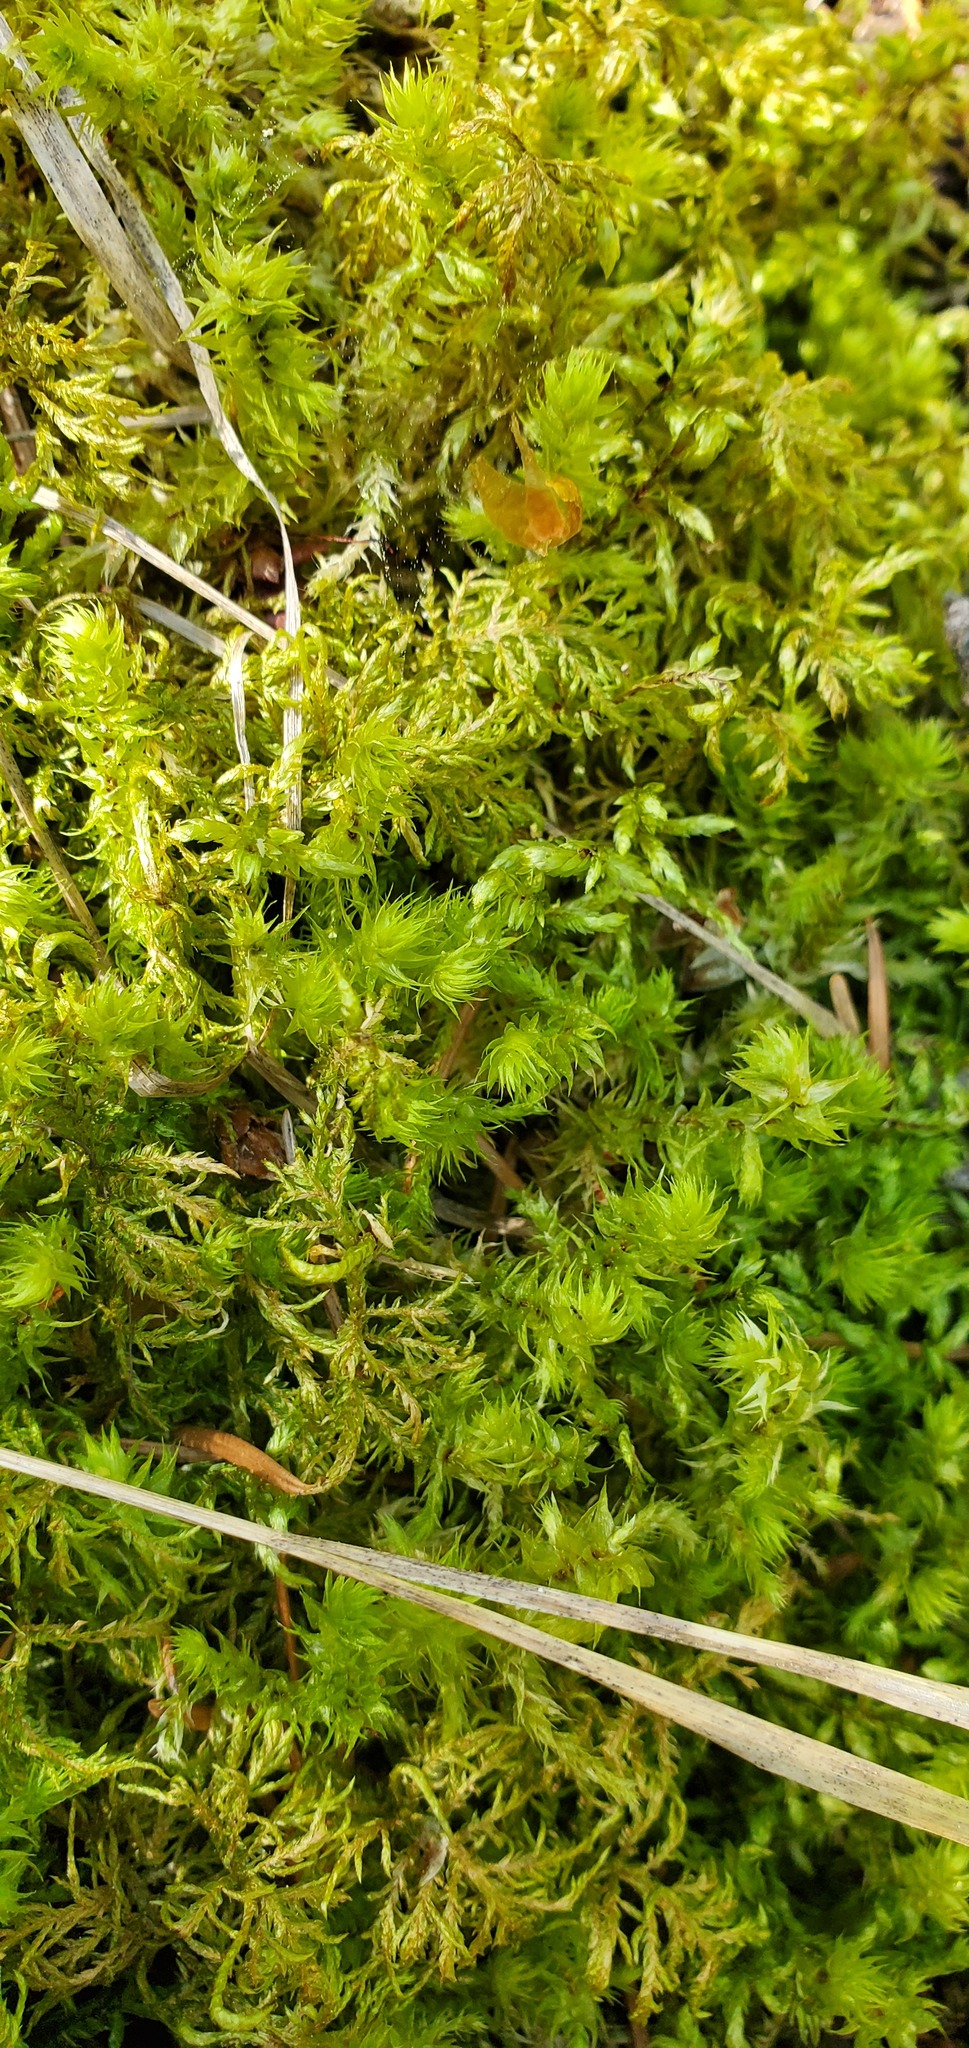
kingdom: Plantae
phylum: Bryophyta
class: Bryopsida
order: Hypnales
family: Hylocomiaceae
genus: Hylocomiadelphus
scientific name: Hylocomiadelphus triquetrus
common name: Rough goose neck moss
